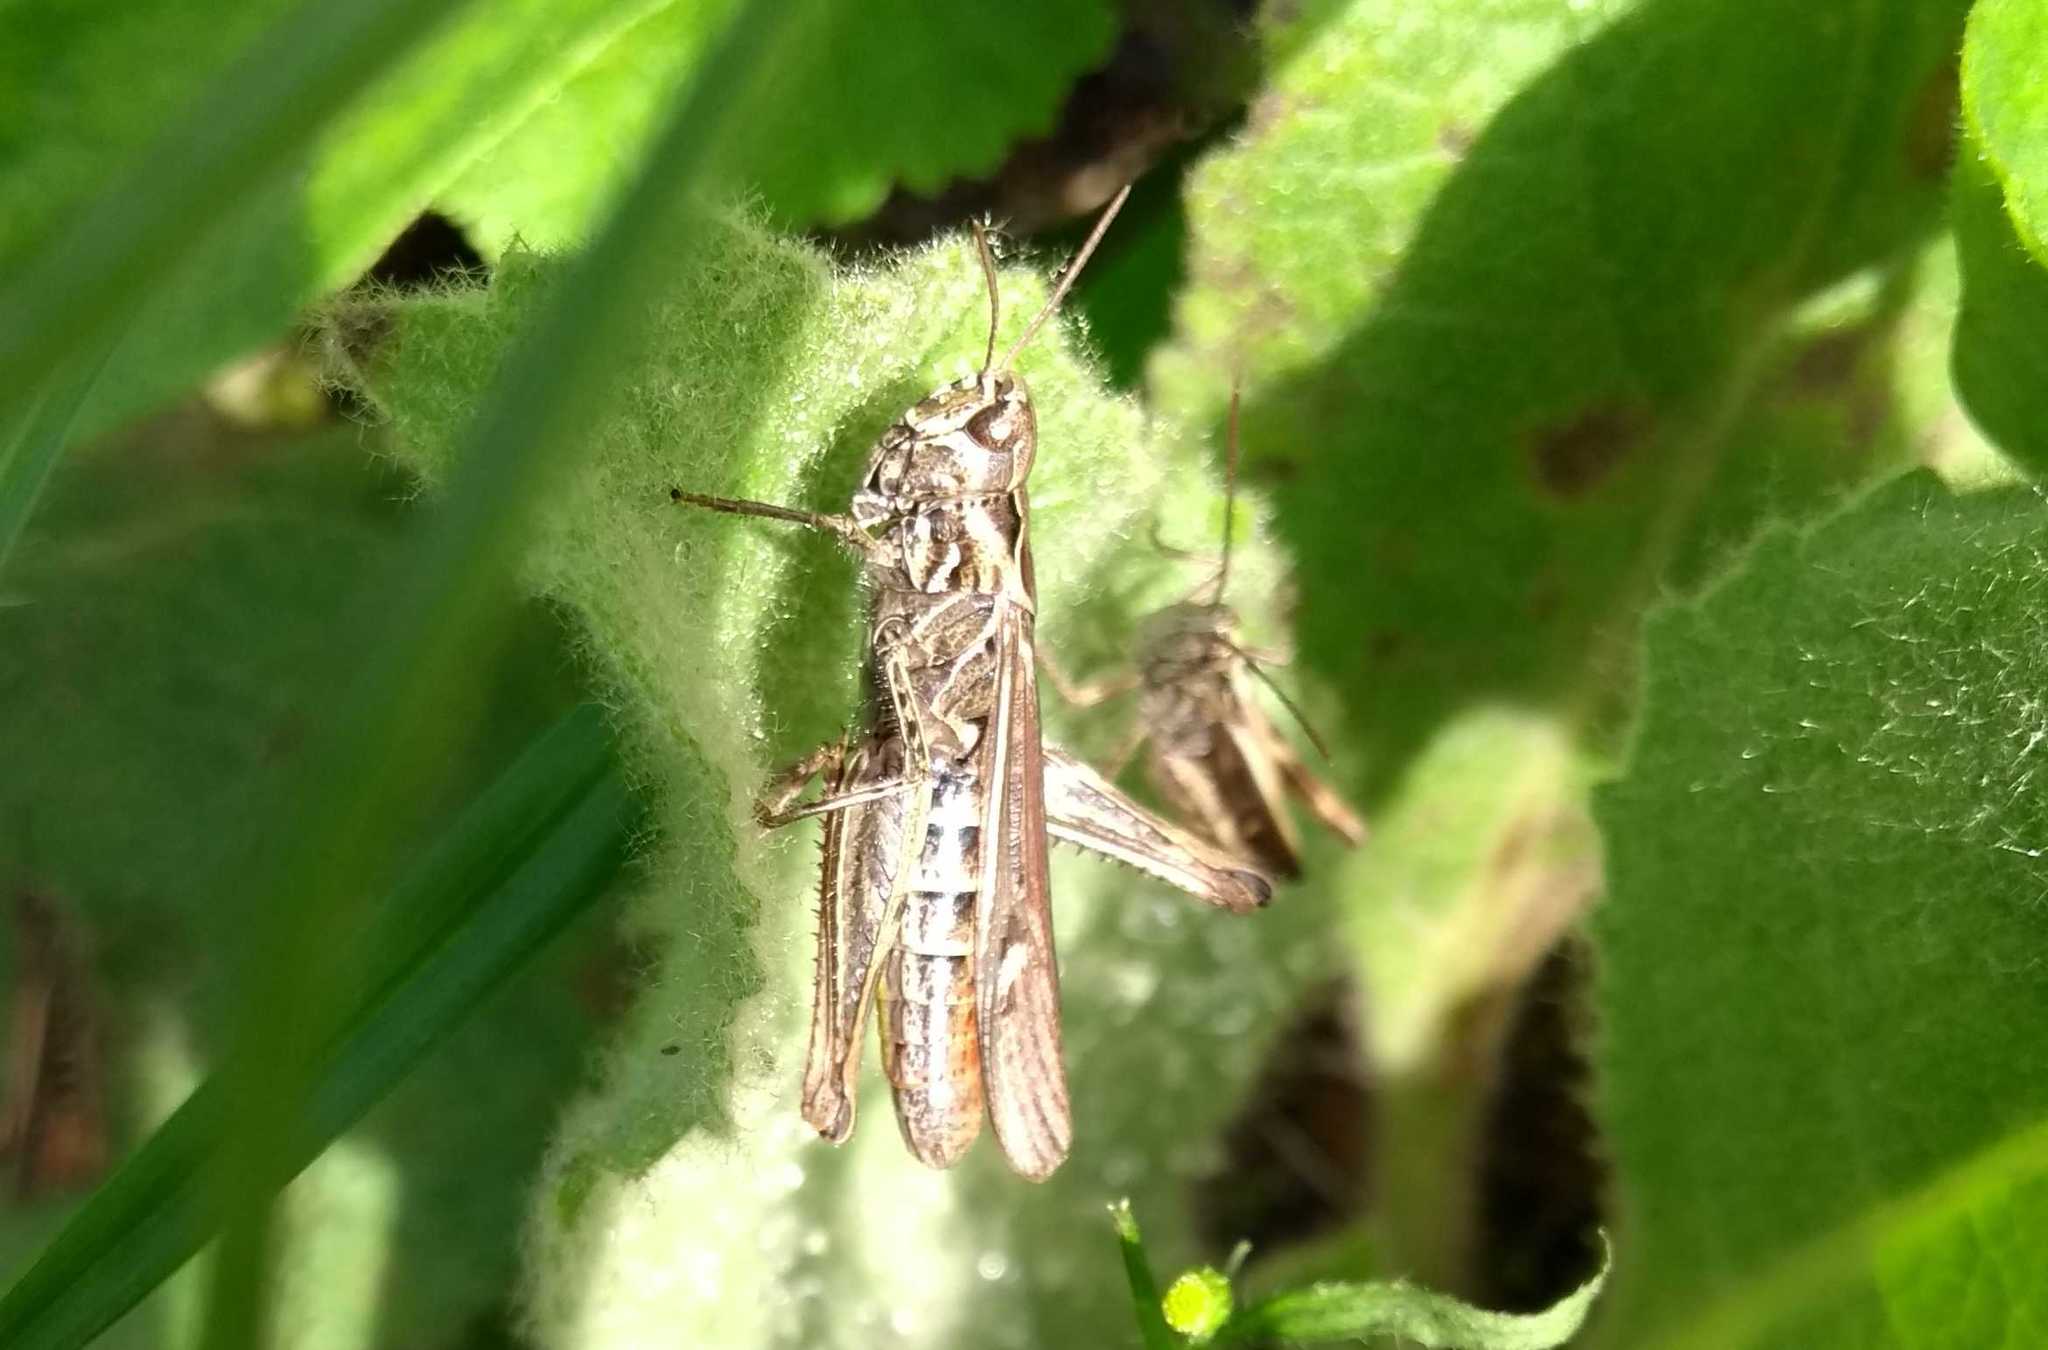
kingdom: Animalia
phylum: Arthropoda
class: Insecta
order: Orthoptera
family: Acrididae
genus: Chorthippus
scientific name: Chorthippus brunneus
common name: Field grasshopper
